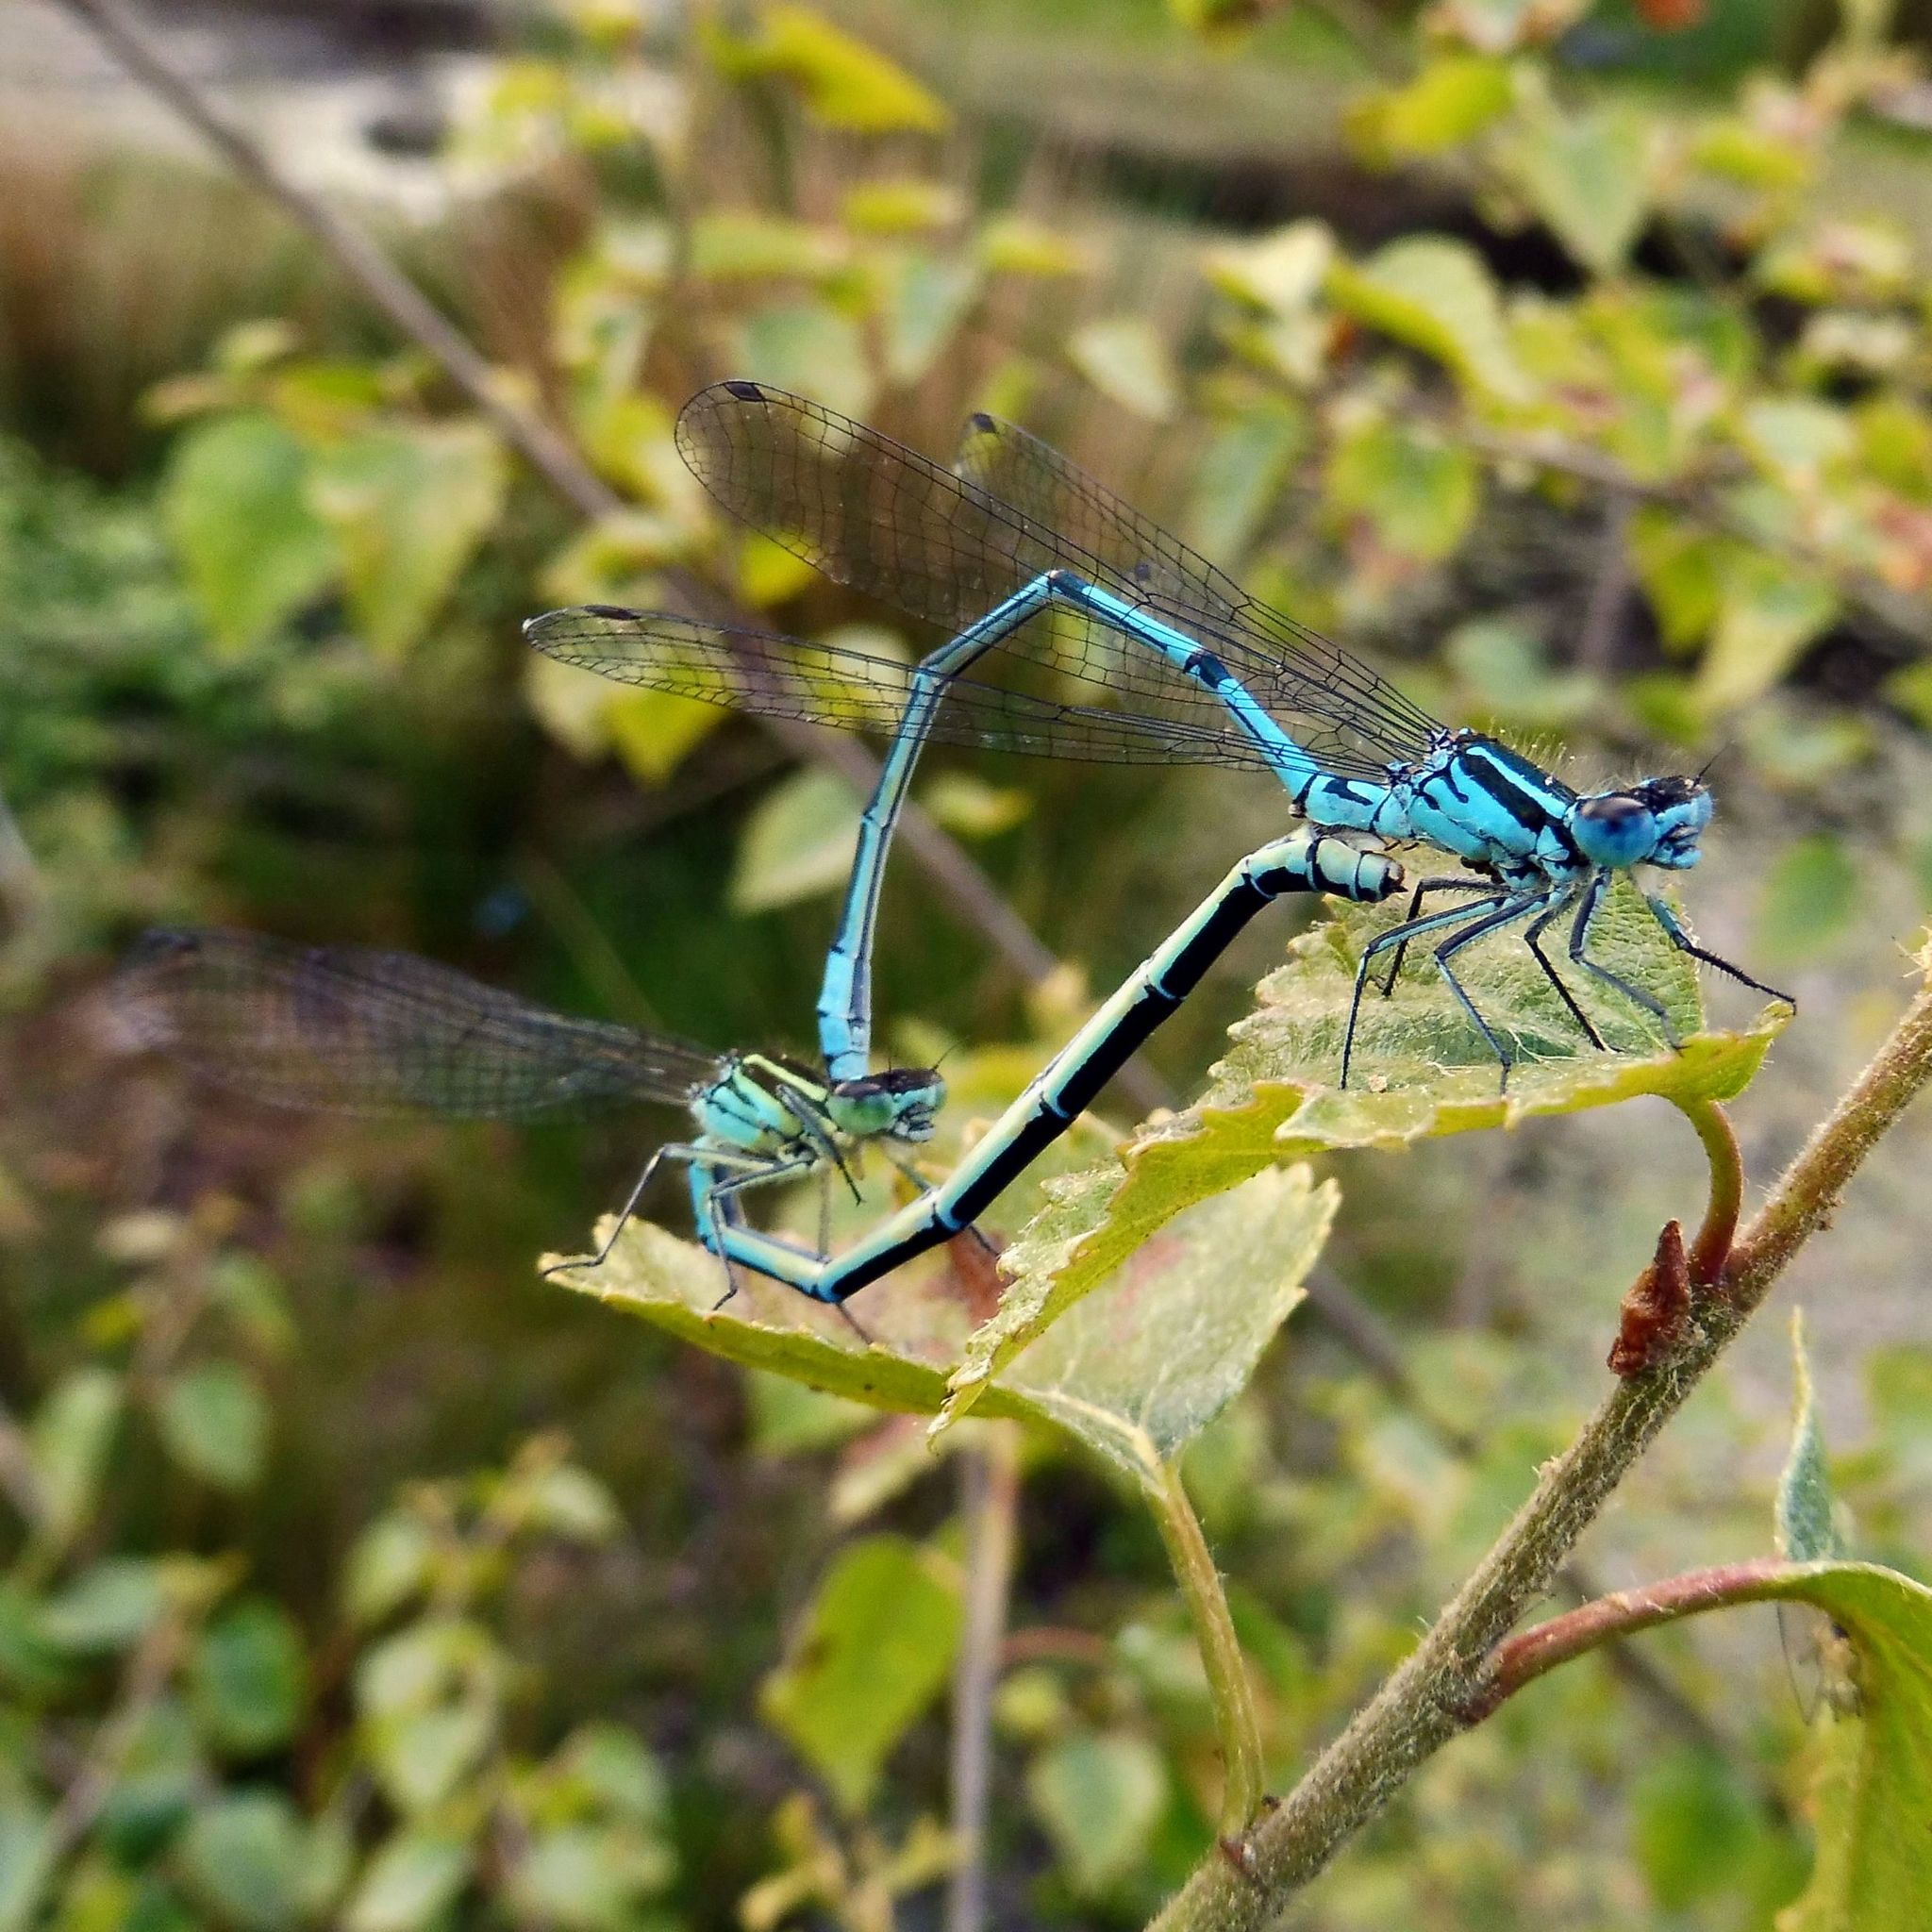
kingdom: Animalia
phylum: Arthropoda
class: Insecta
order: Odonata
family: Coenagrionidae
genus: Coenagrion
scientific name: Coenagrion puella
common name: Azure damselfly
